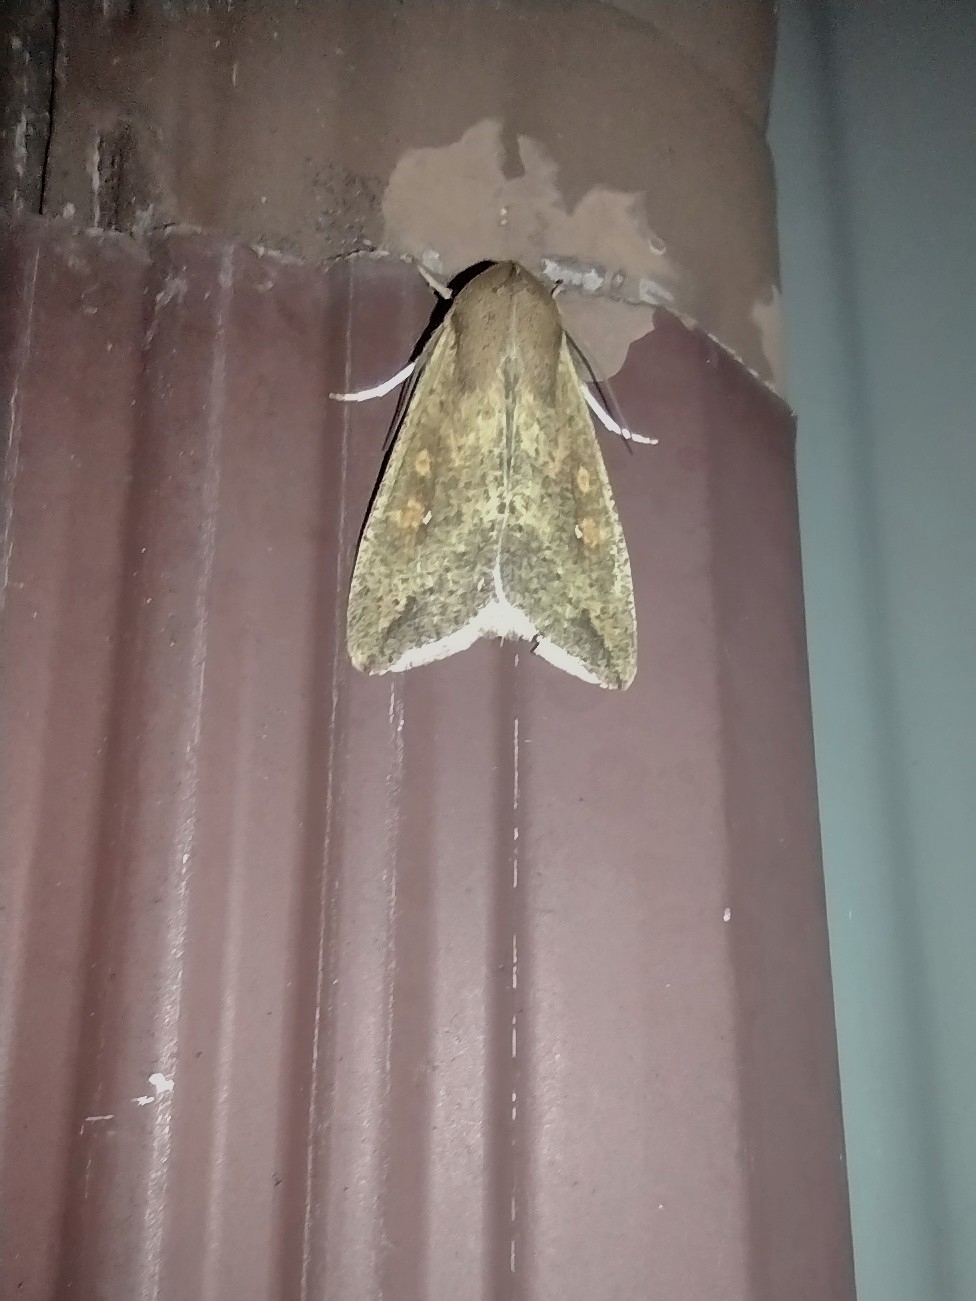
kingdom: Animalia
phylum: Arthropoda
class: Insecta
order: Lepidoptera
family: Noctuidae
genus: Mythimna
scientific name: Mythimna unipuncta
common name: White-speck
